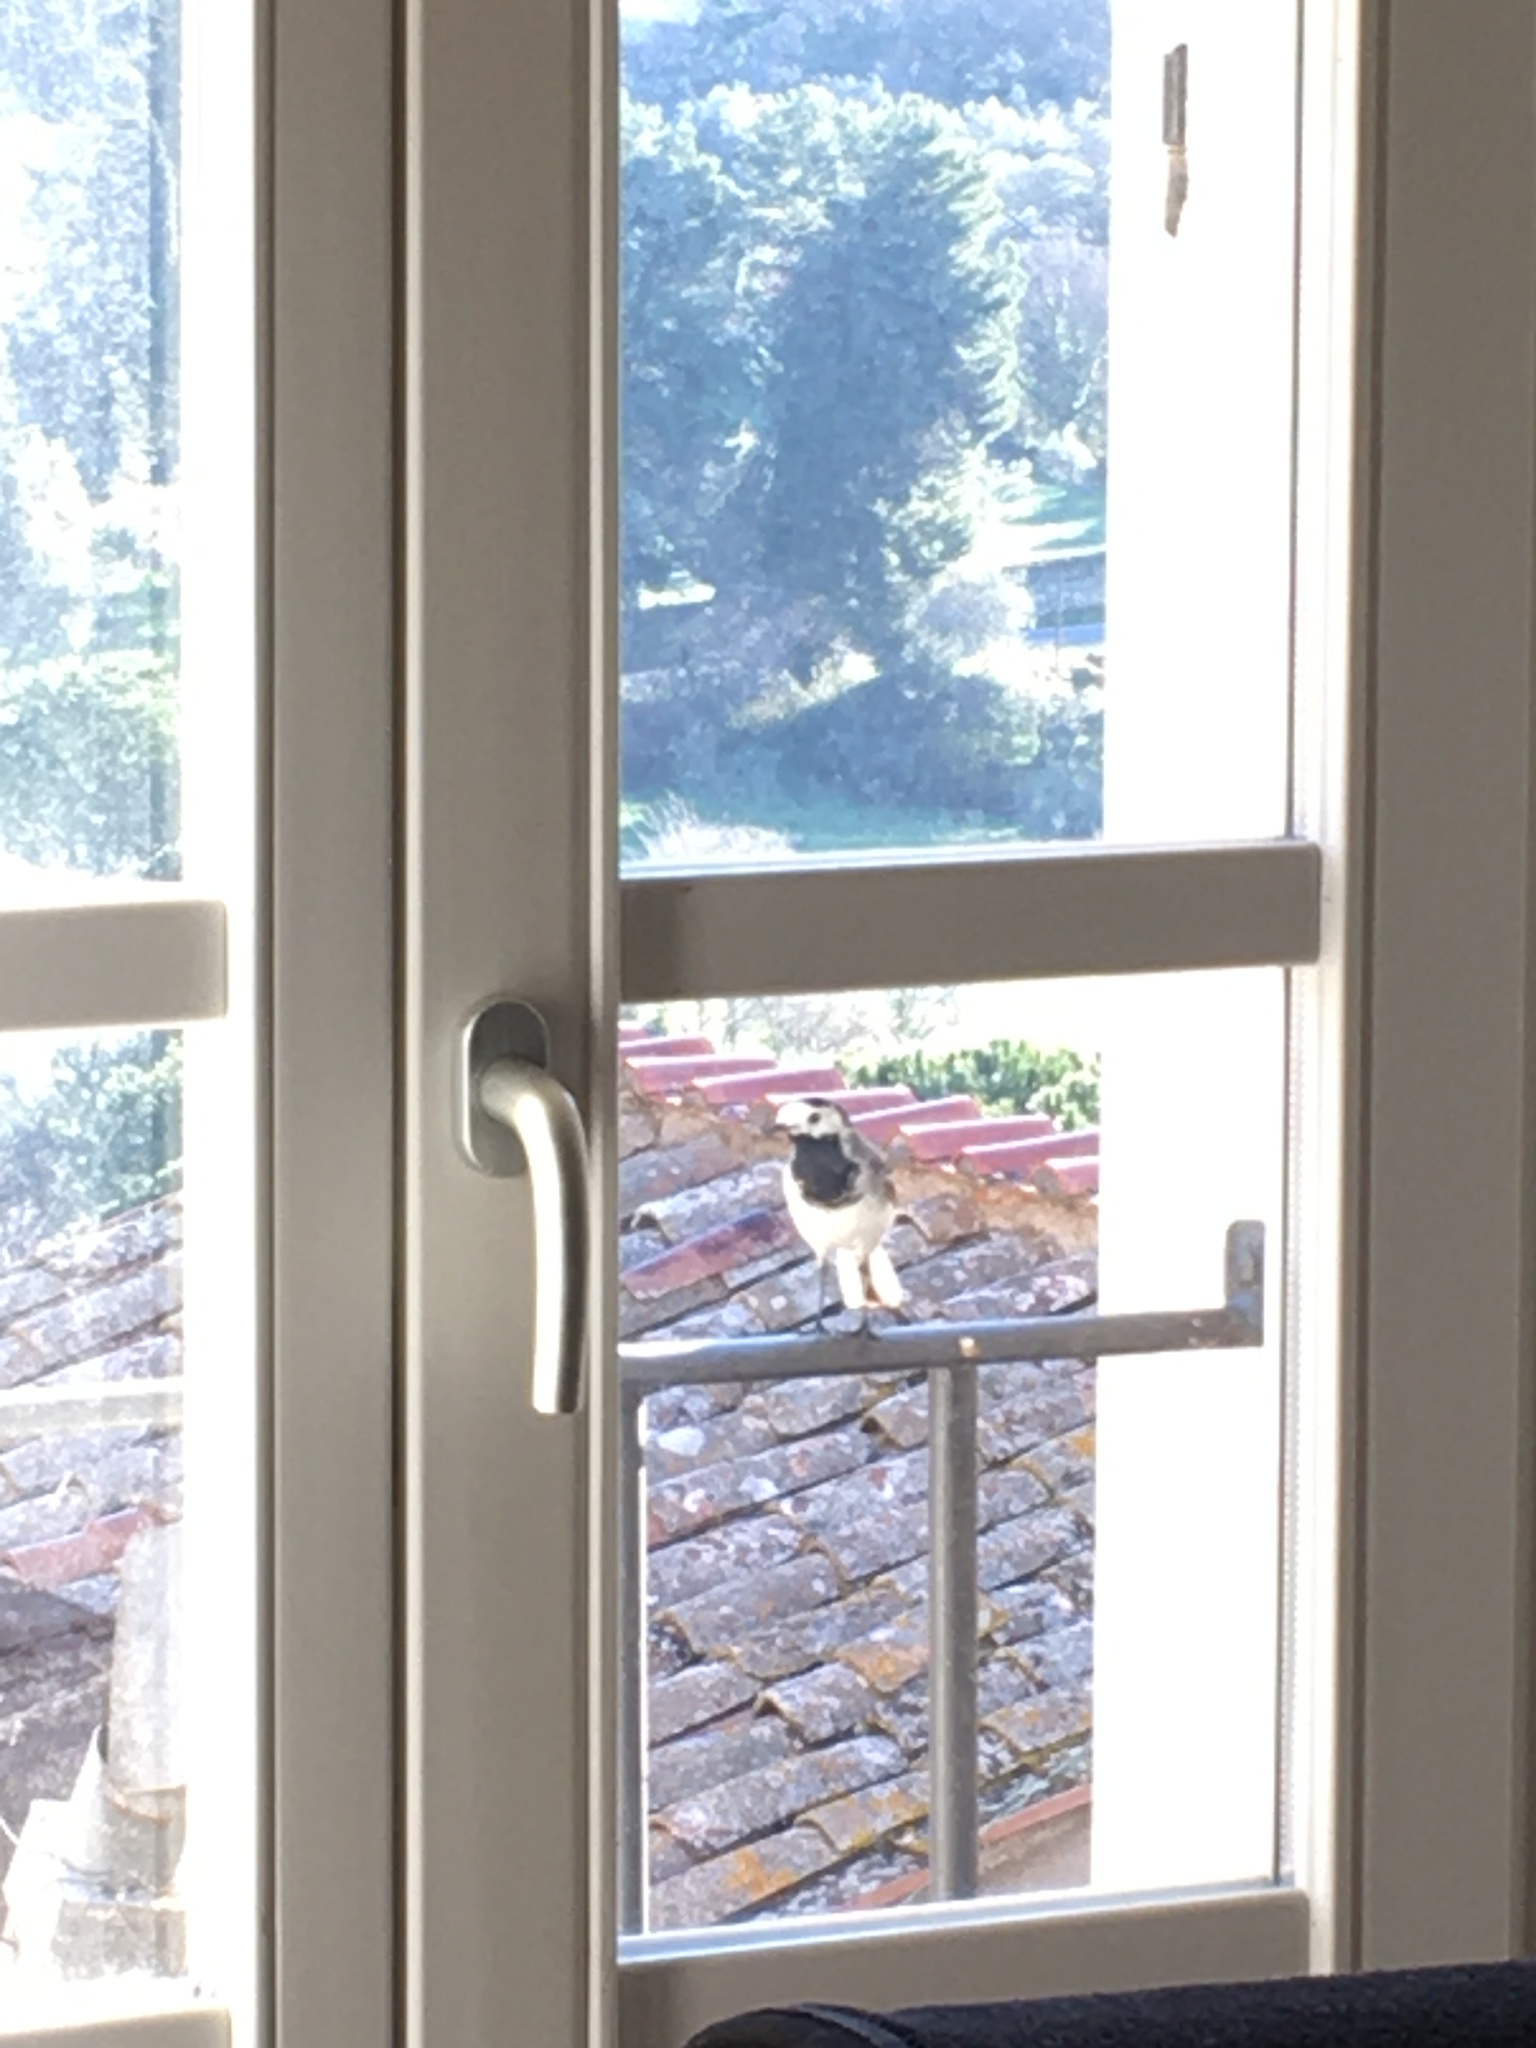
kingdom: Animalia
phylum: Chordata
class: Aves
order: Passeriformes
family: Motacillidae
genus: Motacilla
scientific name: Motacilla alba
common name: White wagtail
